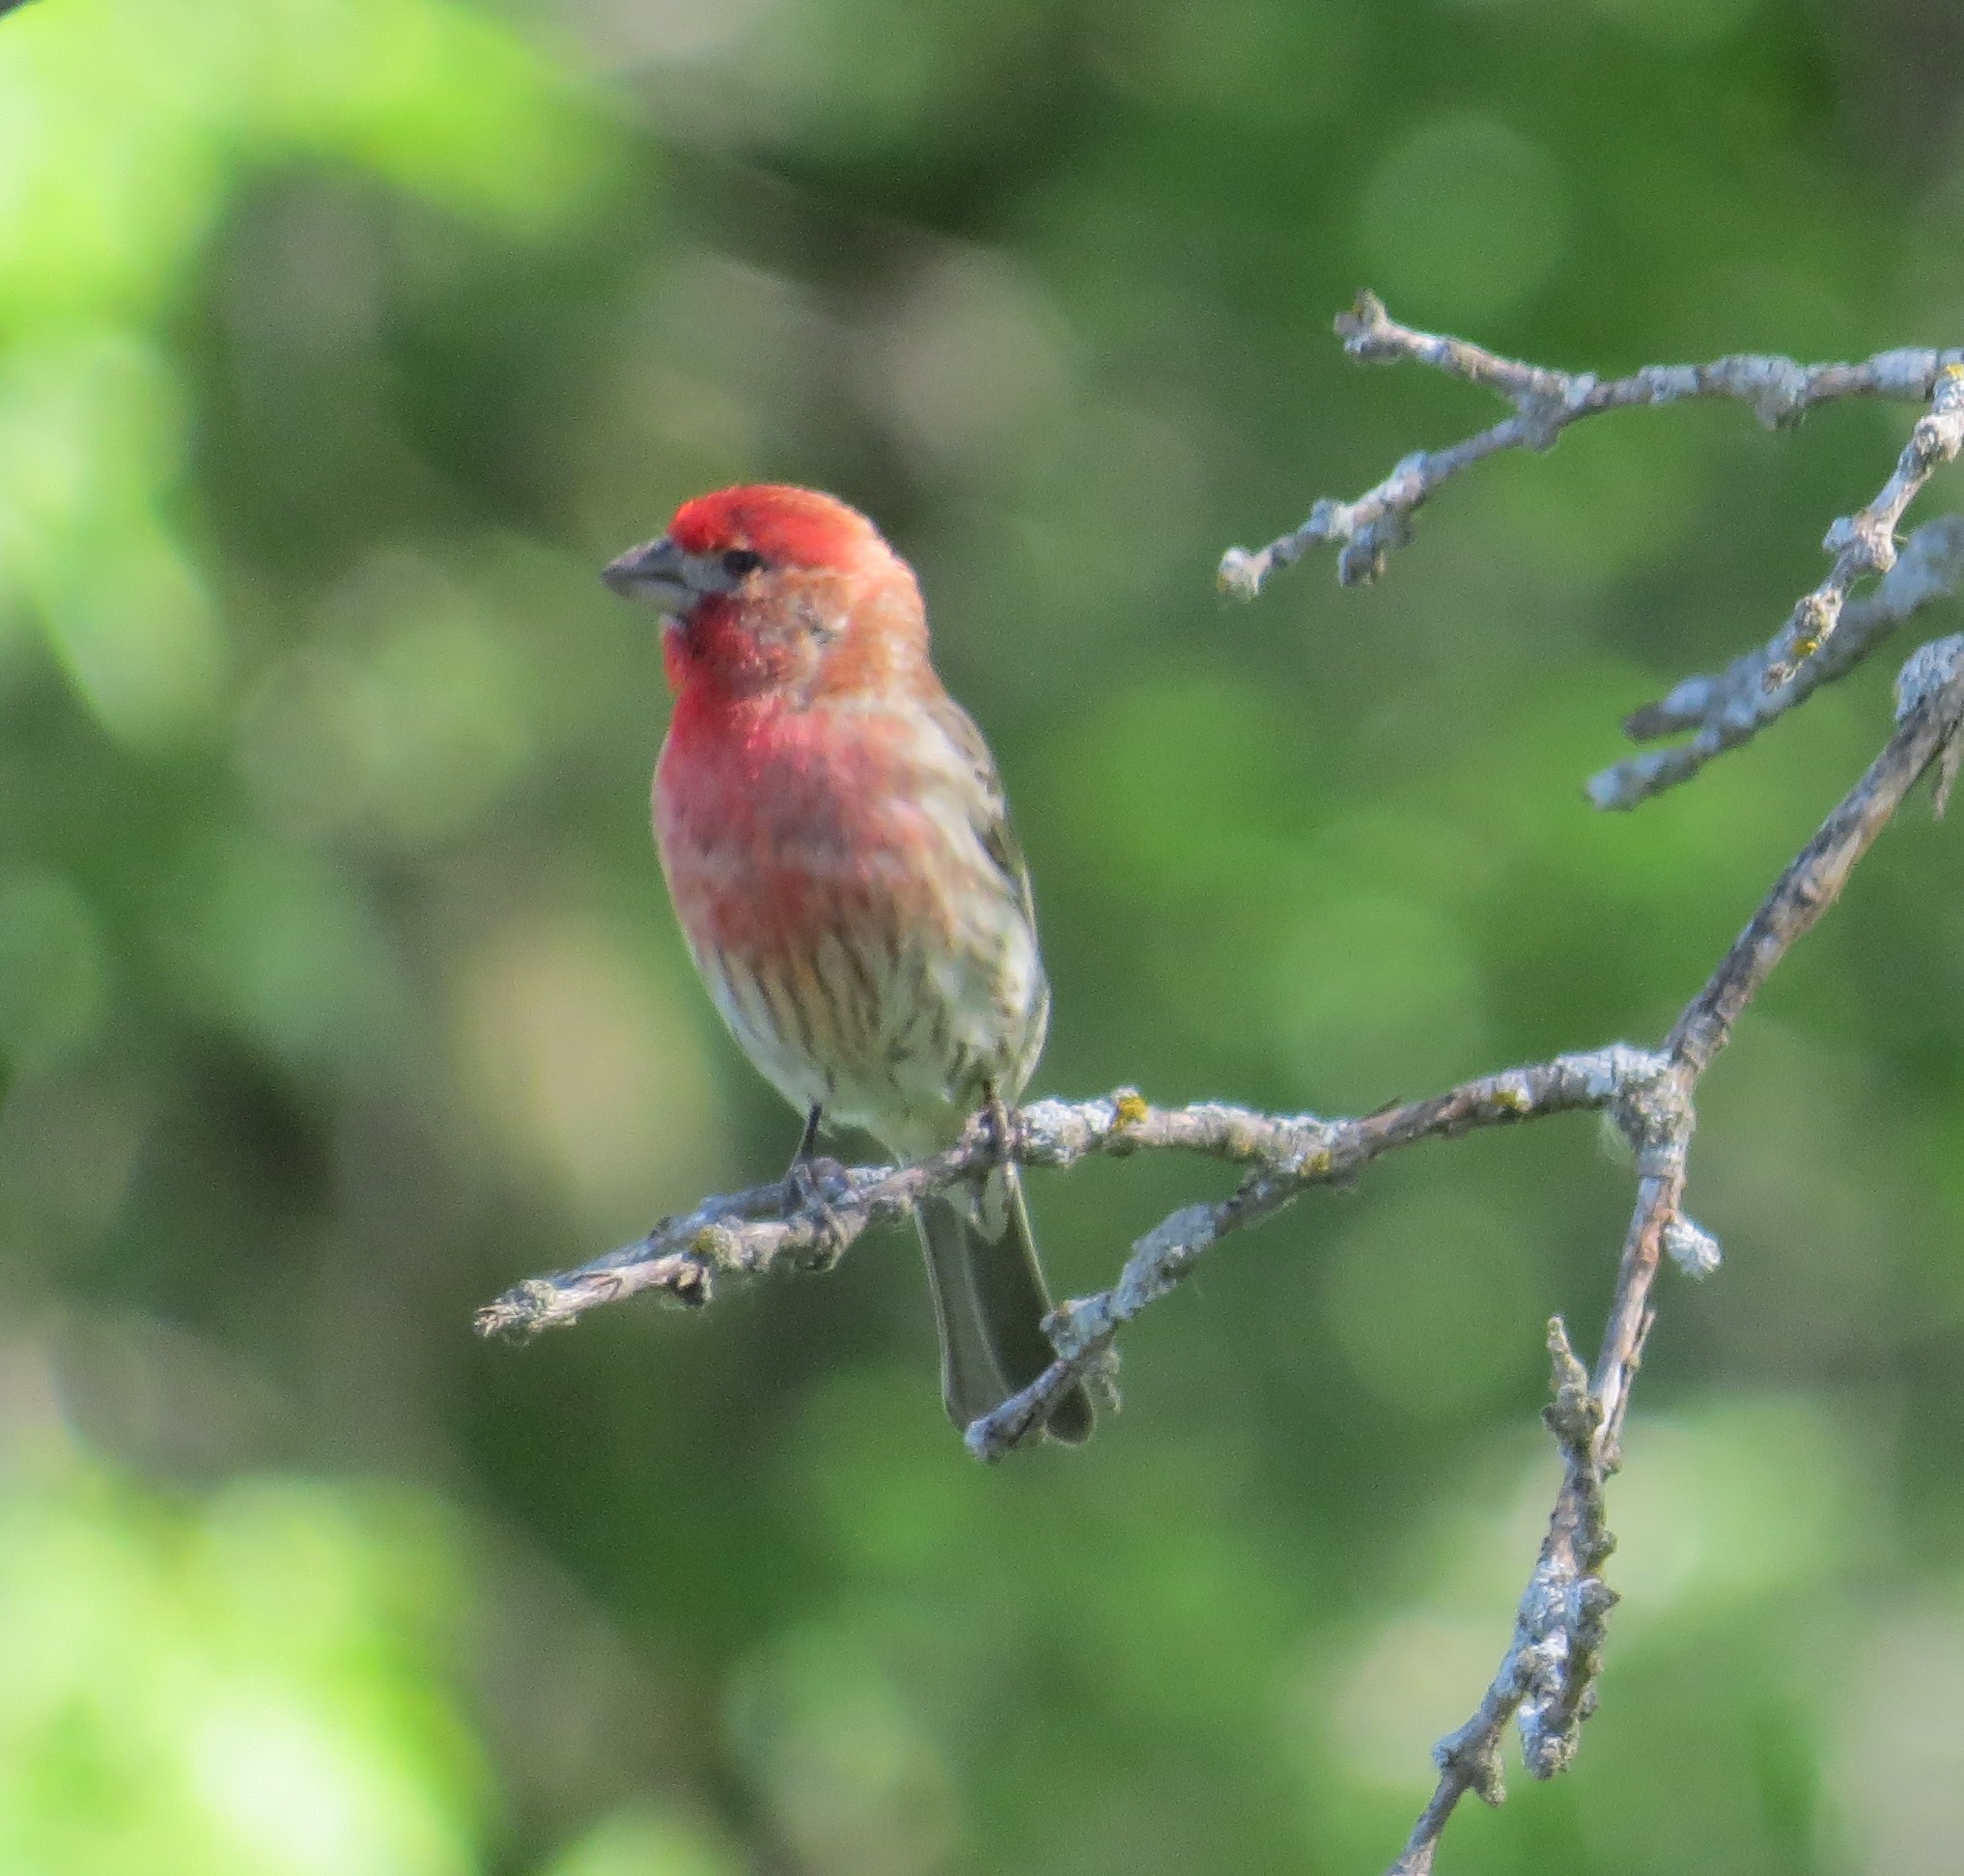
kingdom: Animalia
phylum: Chordata
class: Aves
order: Passeriformes
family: Fringillidae
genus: Haemorhous
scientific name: Haemorhous mexicanus
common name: House finch
